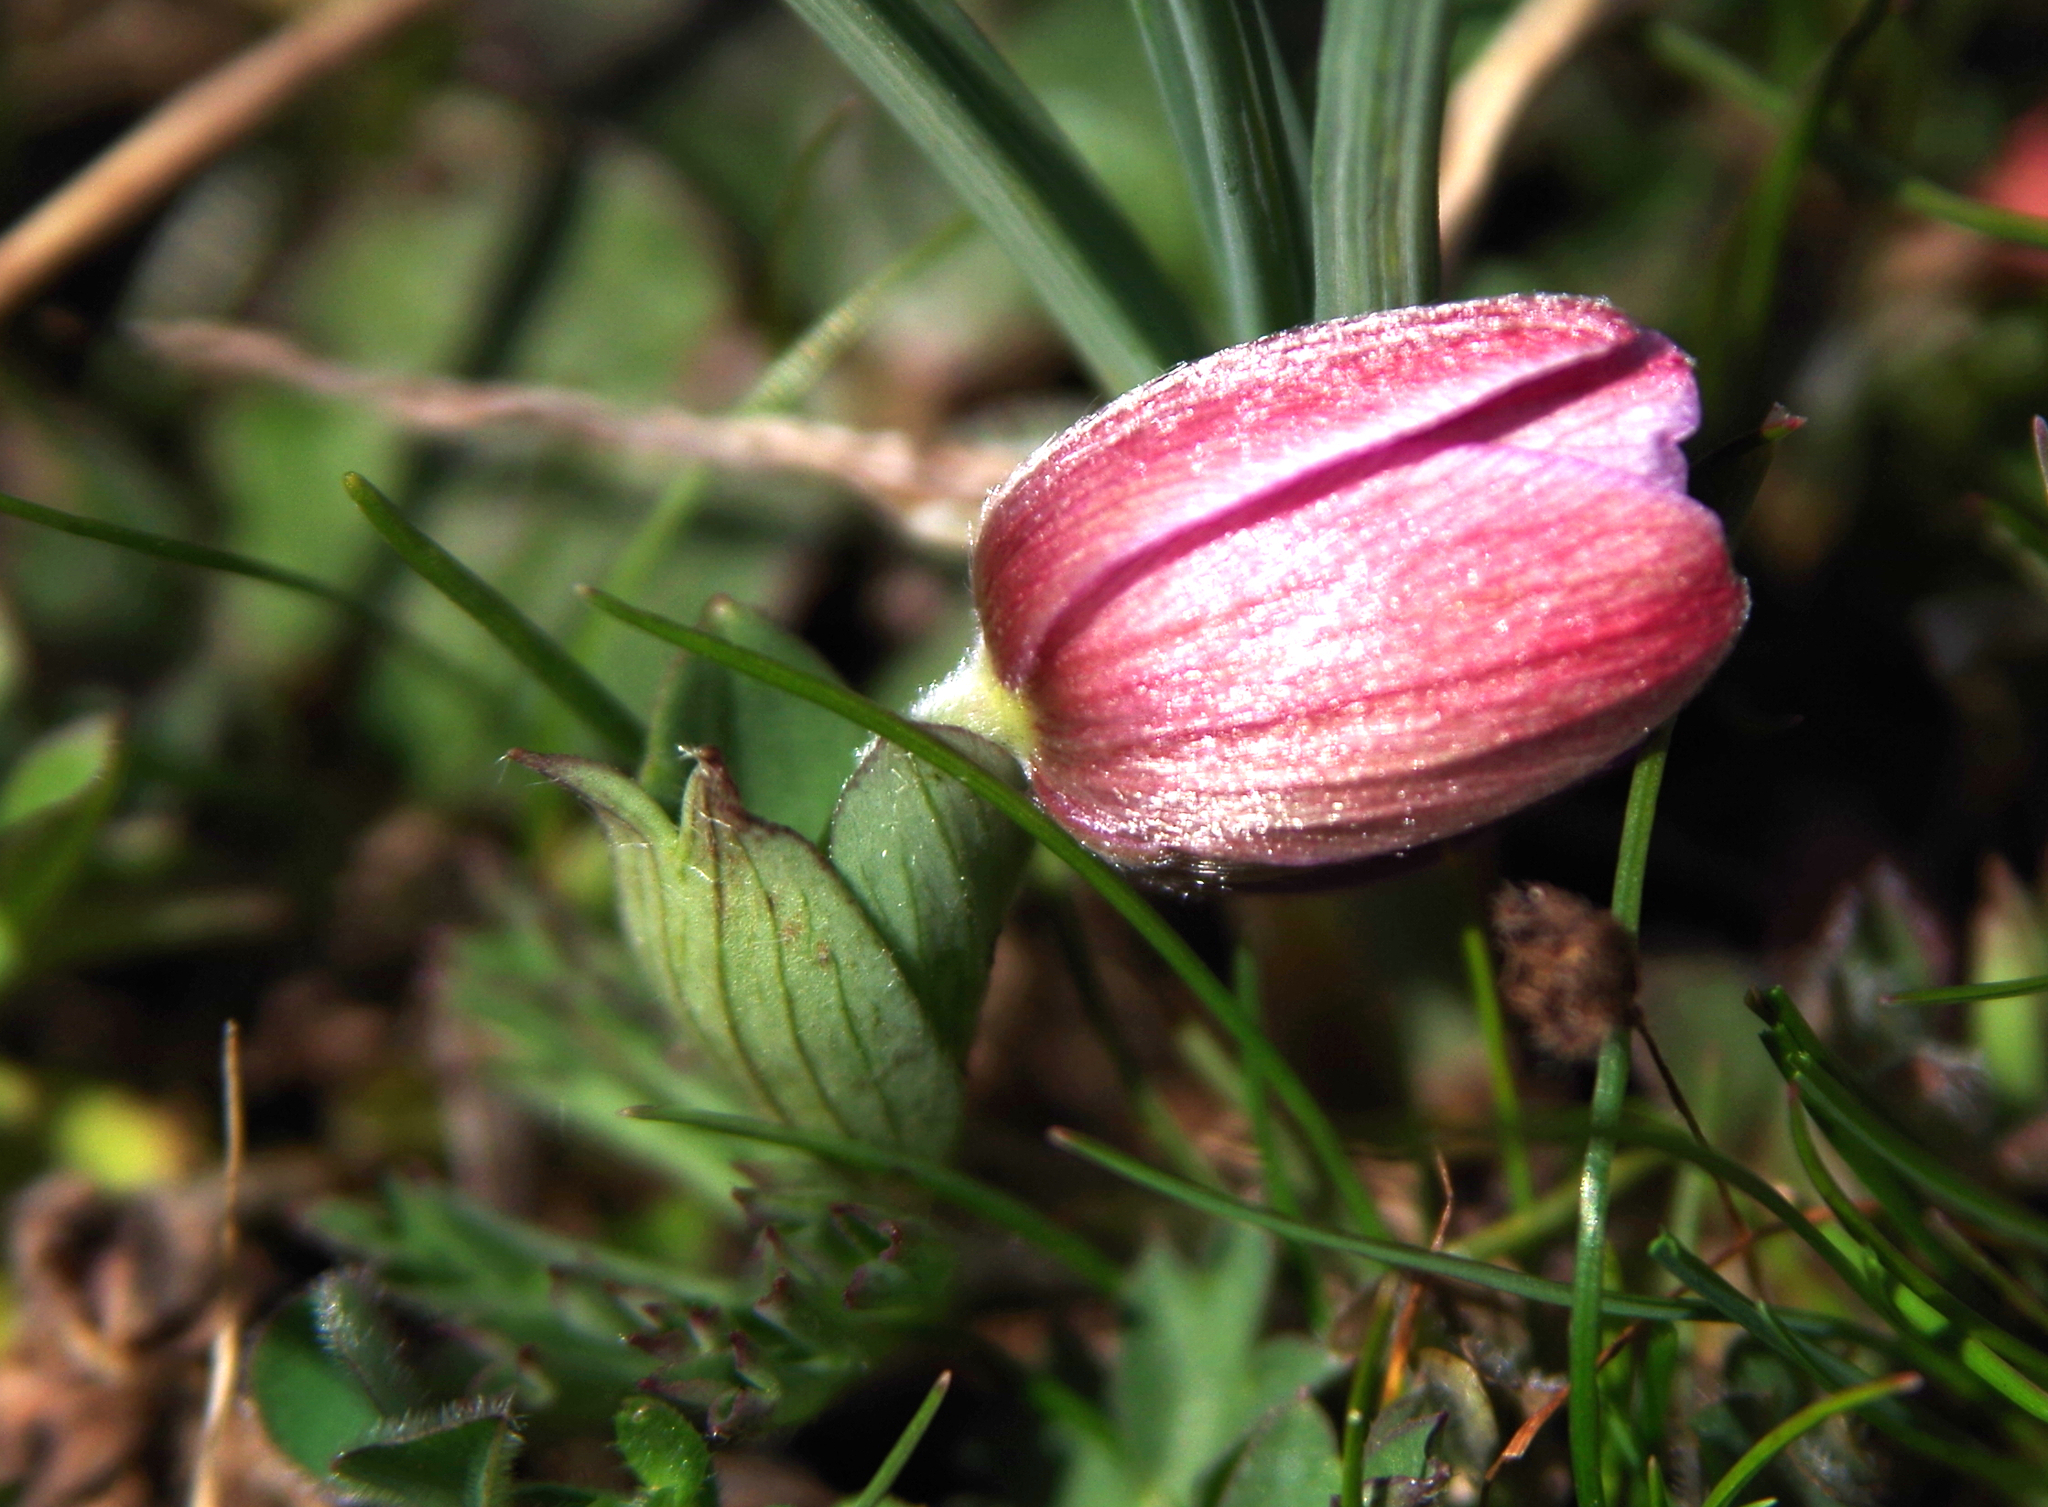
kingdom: Plantae
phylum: Tracheophyta
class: Magnoliopsida
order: Ranunculales
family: Ranunculaceae
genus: Anemone
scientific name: Anemone pavonina
